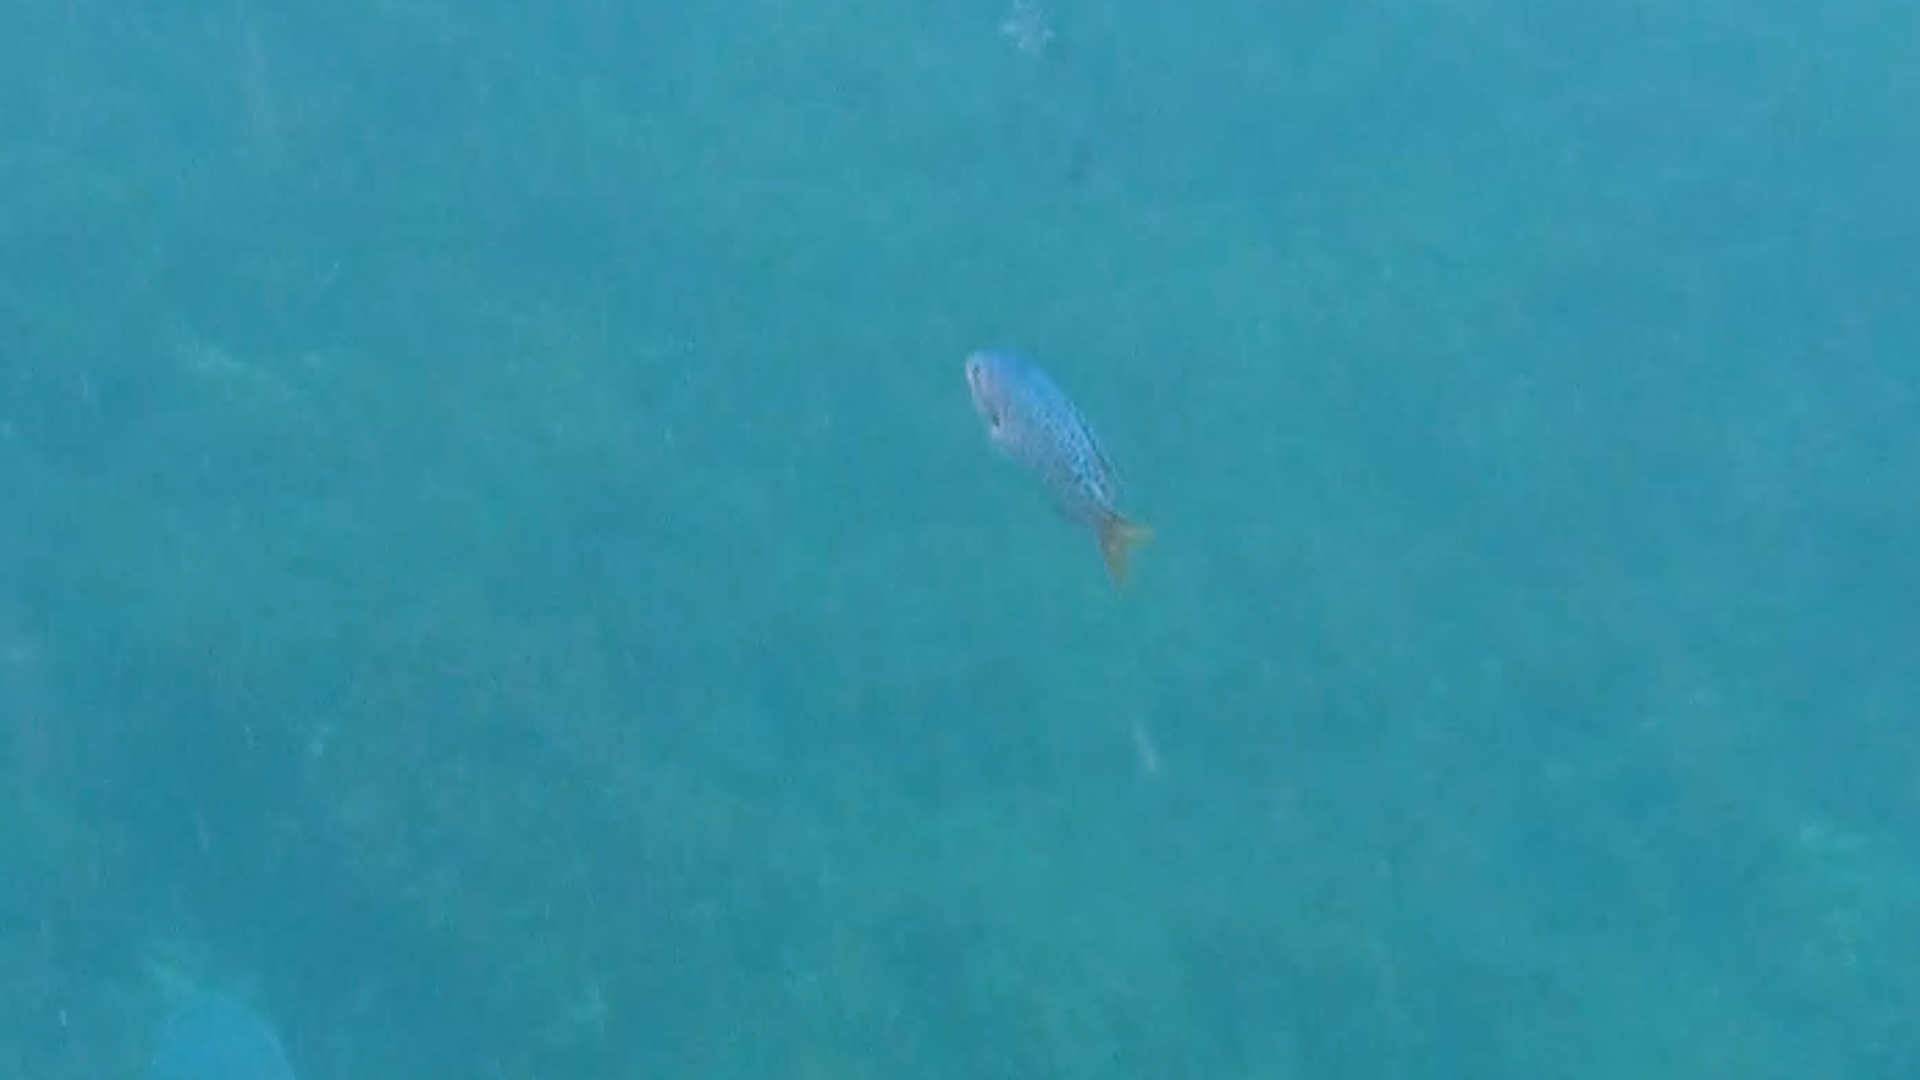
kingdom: Animalia
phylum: Chordata
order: Perciformes
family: Pomacentridae
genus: Chromis
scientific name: Chromis punctipinnis
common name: Blacksmith
